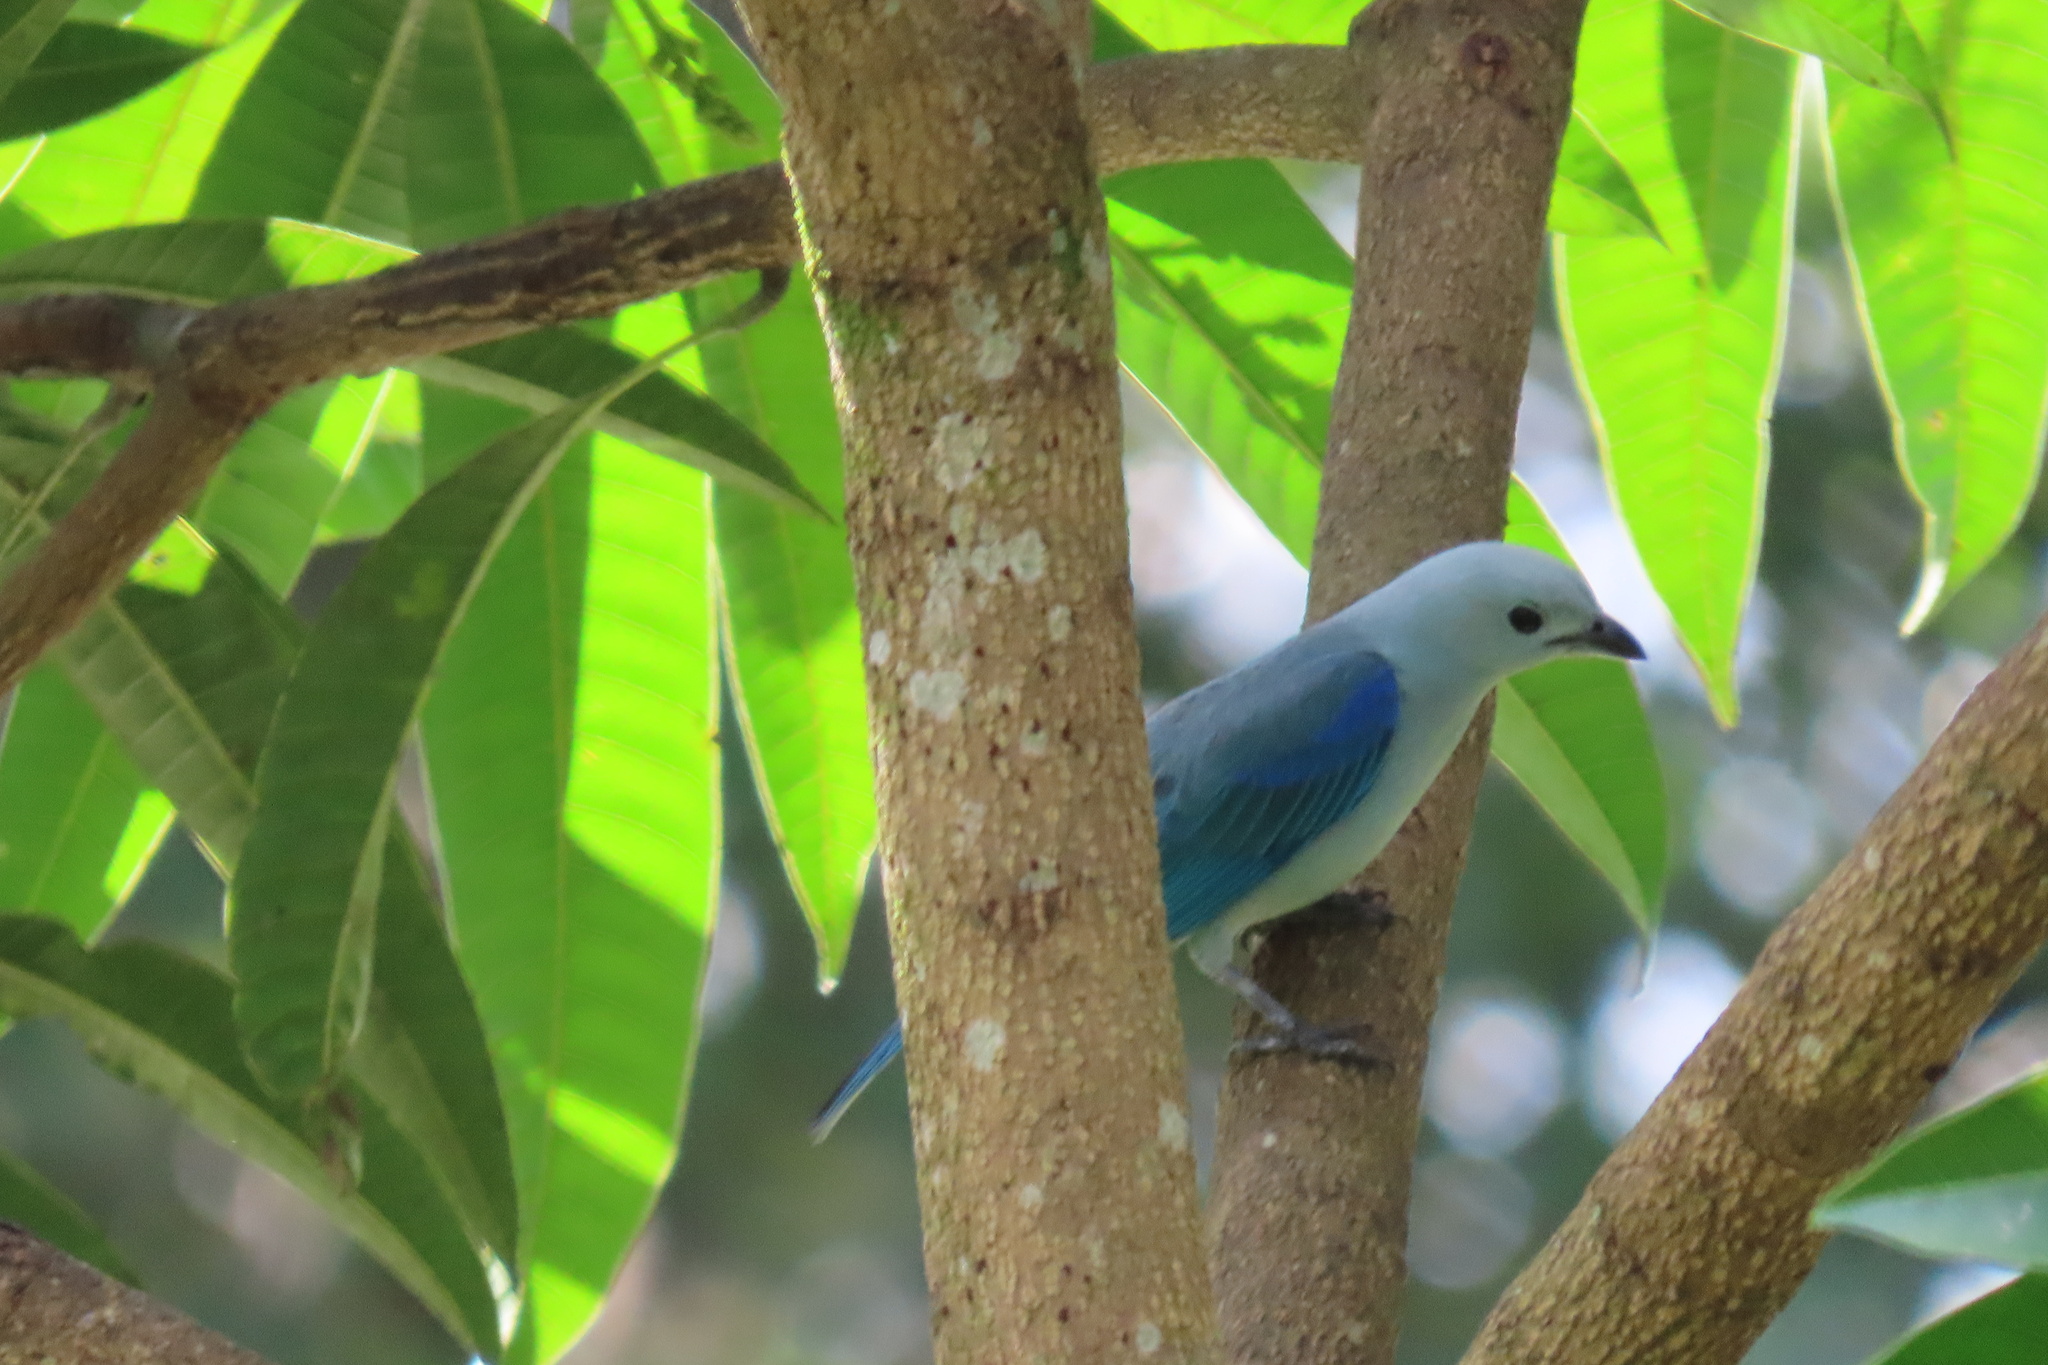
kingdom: Animalia
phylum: Chordata
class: Aves
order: Passeriformes
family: Thraupidae
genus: Thraupis
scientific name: Thraupis episcopus
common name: Blue-grey tanager
